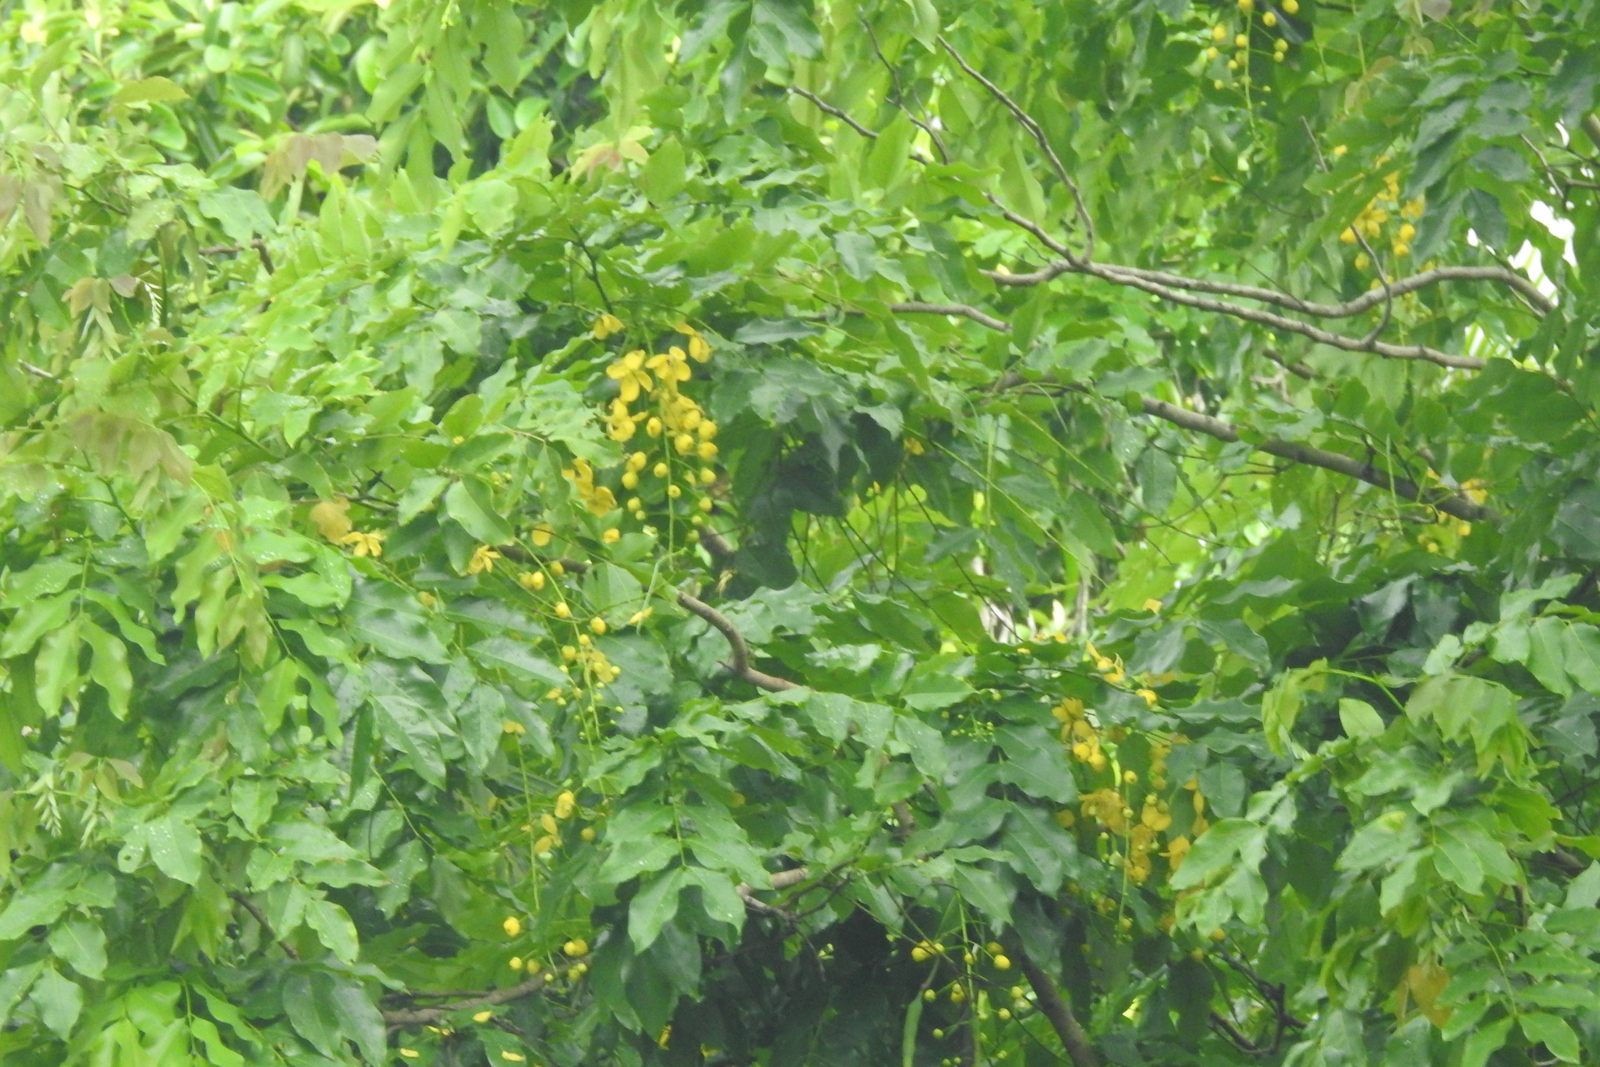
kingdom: Plantae
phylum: Tracheophyta
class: Magnoliopsida
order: Fabales
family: Fabaceae
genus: Cassia
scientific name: Cassia fistula
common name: Golden shower
